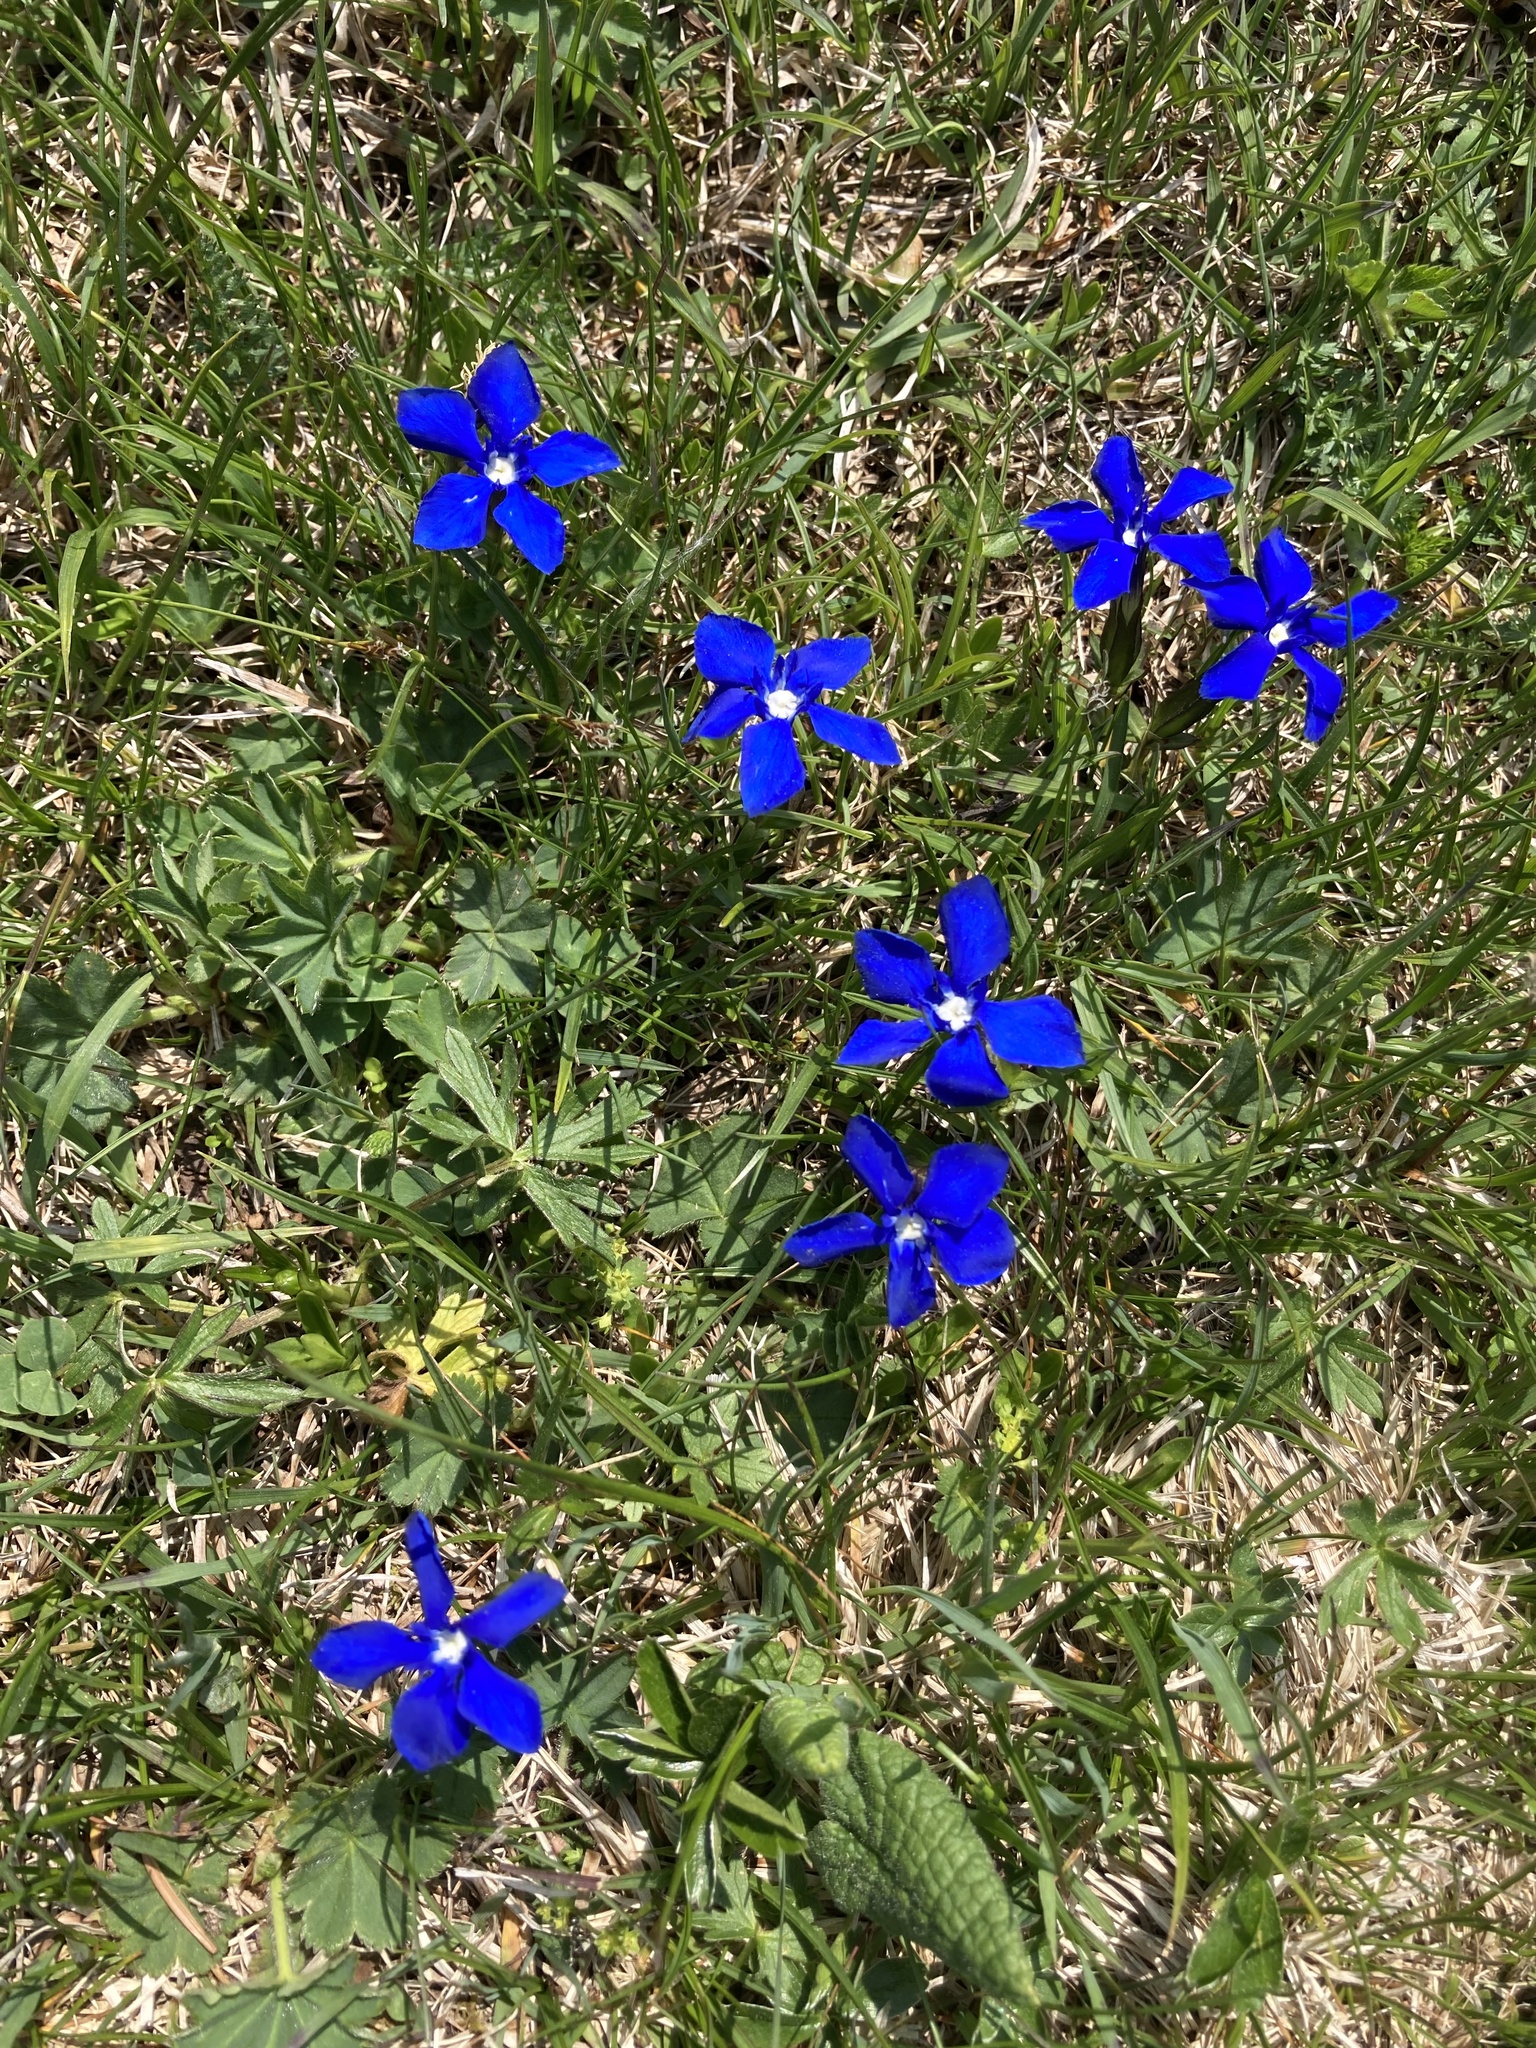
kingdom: Plantae
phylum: Tracheophyta
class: Magnoliopsida
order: Gentianales
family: Gentianaceae
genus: Gentiana
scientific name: Gentiana verna
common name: Spring gentian
